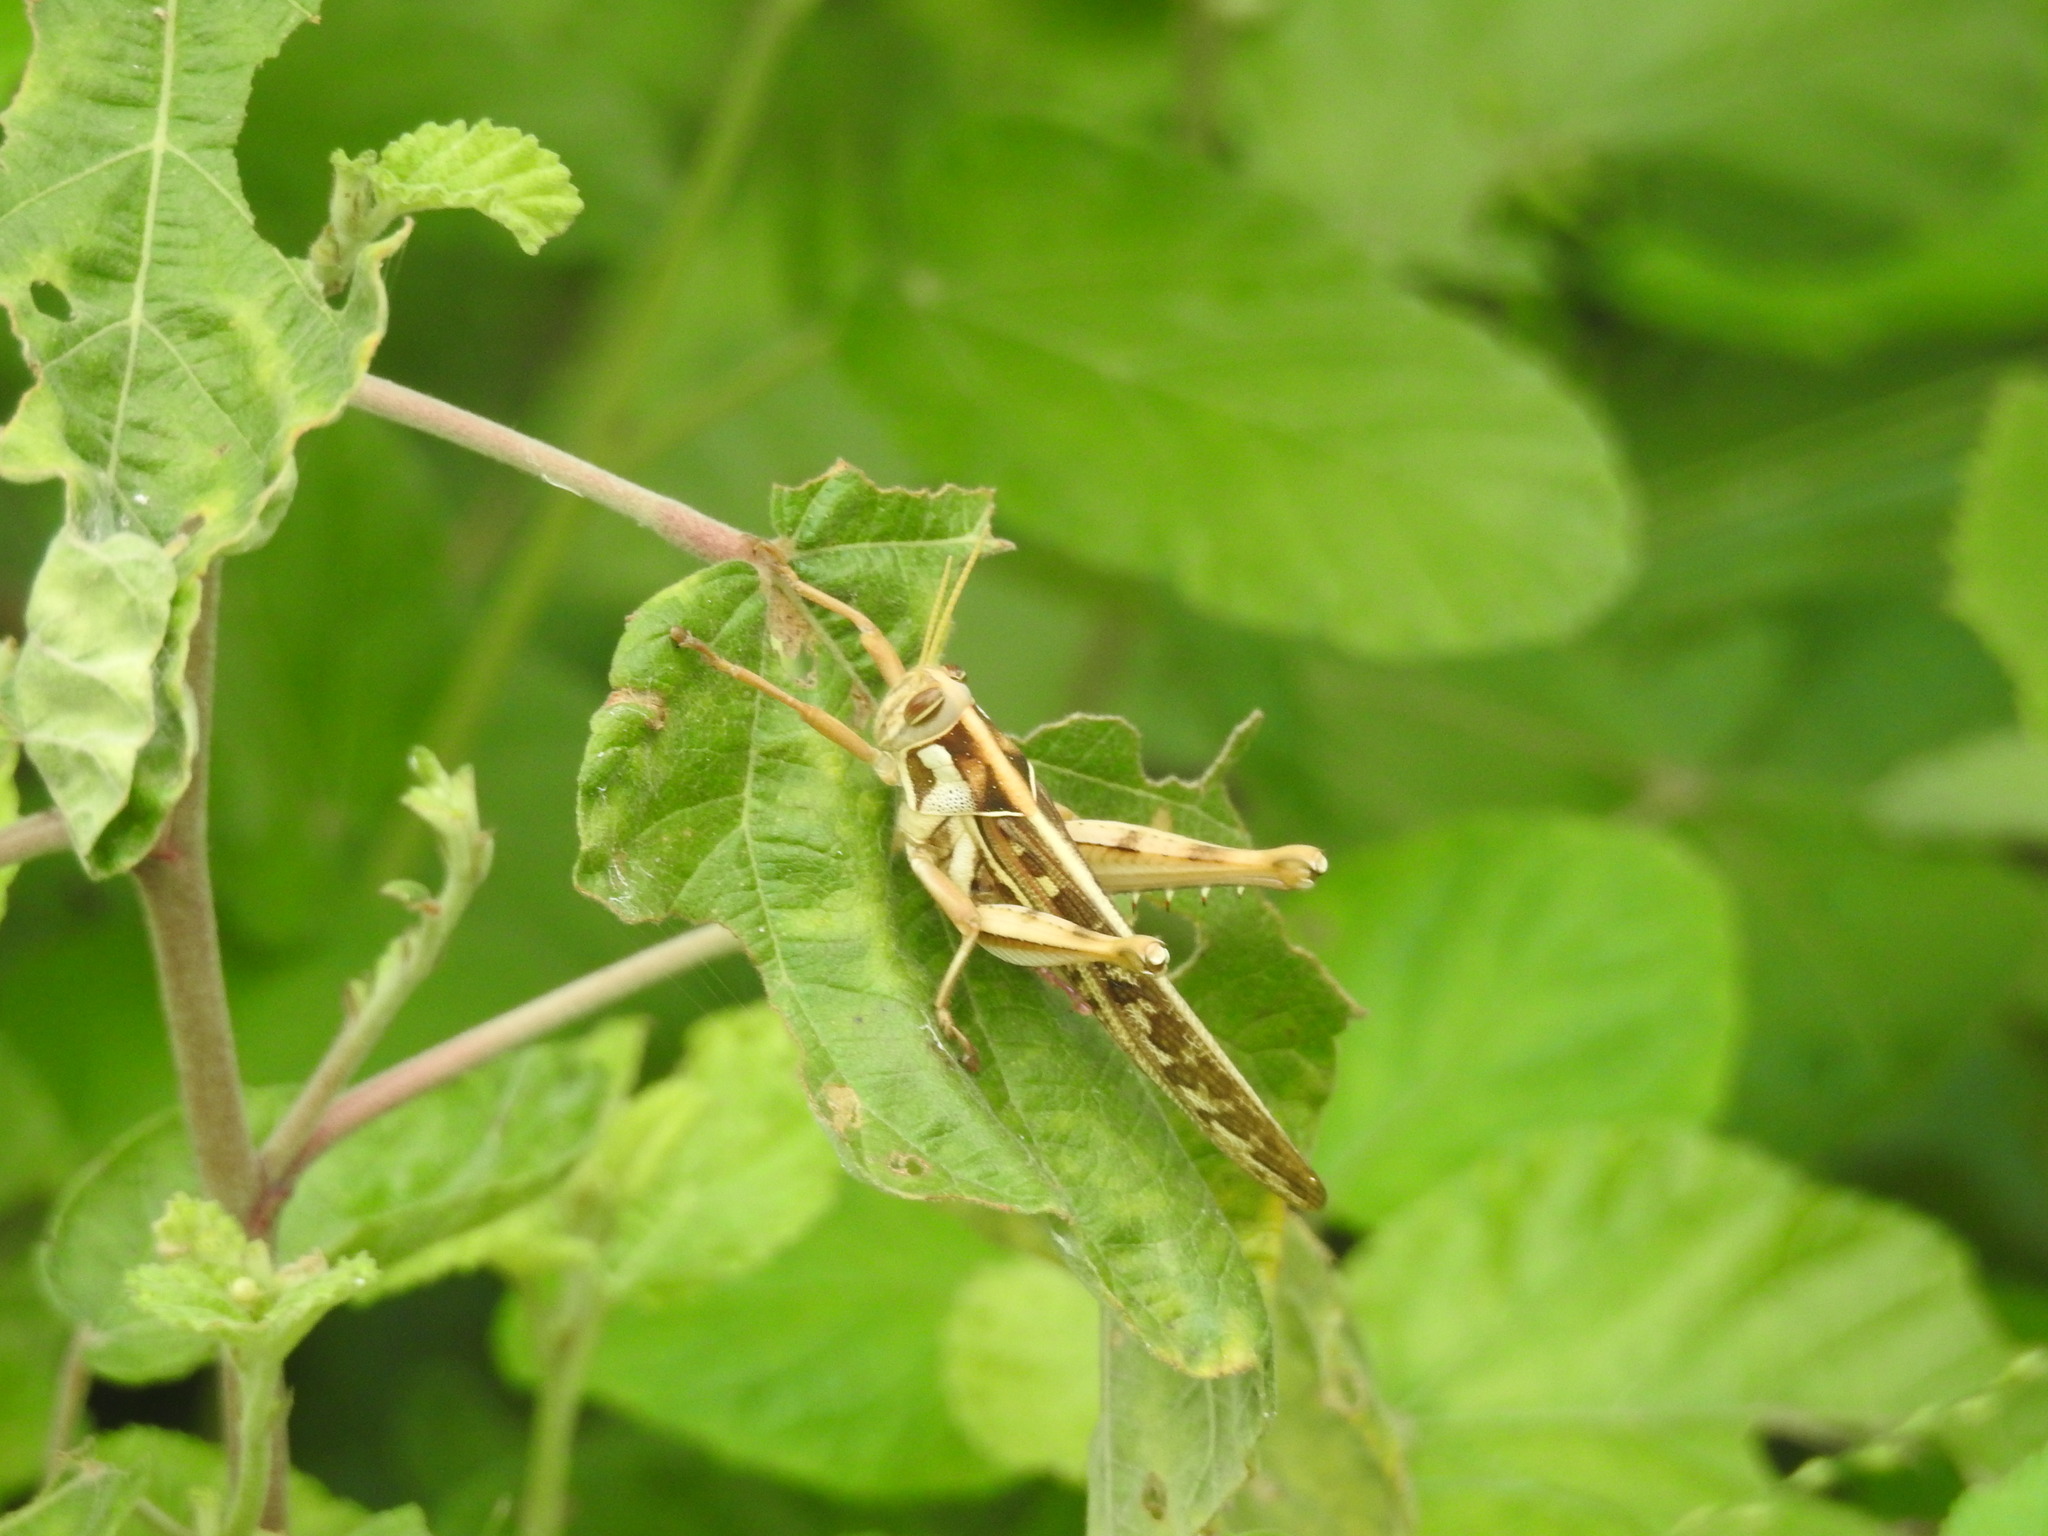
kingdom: Animalia
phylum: Arthropoda
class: Insecta
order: Orthoptera
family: Acrididae
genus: Cyrtacanthacris
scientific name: Cyrtacanthacris tatarica
